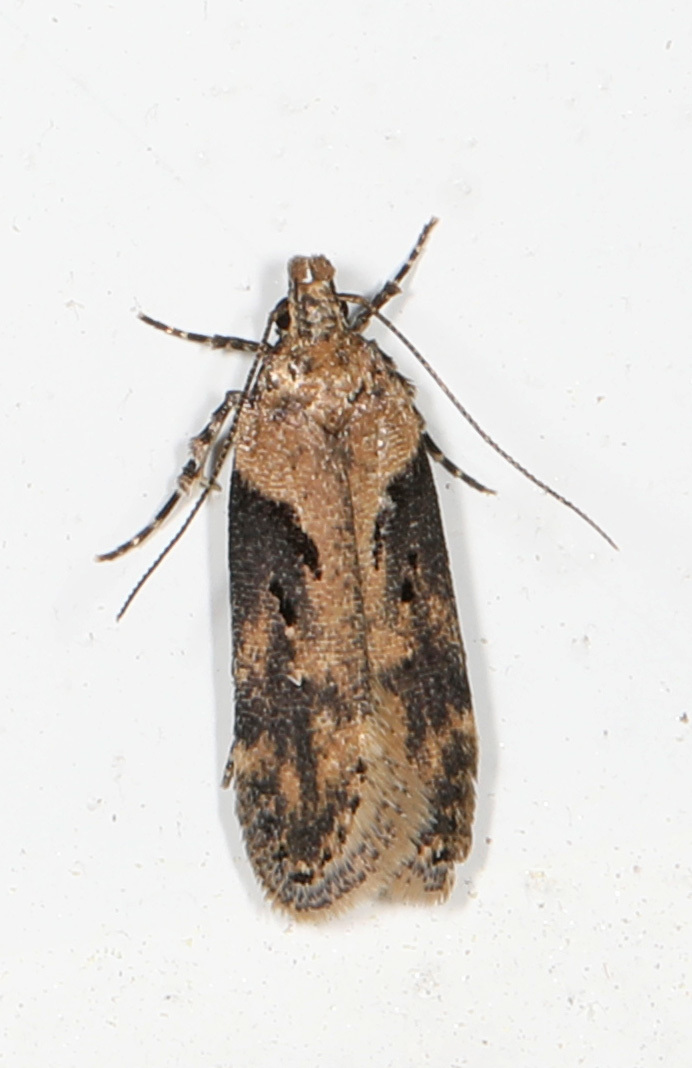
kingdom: Animalia
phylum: Arthropoda
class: Insecta
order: Lepidoptera
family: Gelechiidae
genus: Chionodes
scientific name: Chionodes mediofuscella
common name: Black-smudged chionodes moth
